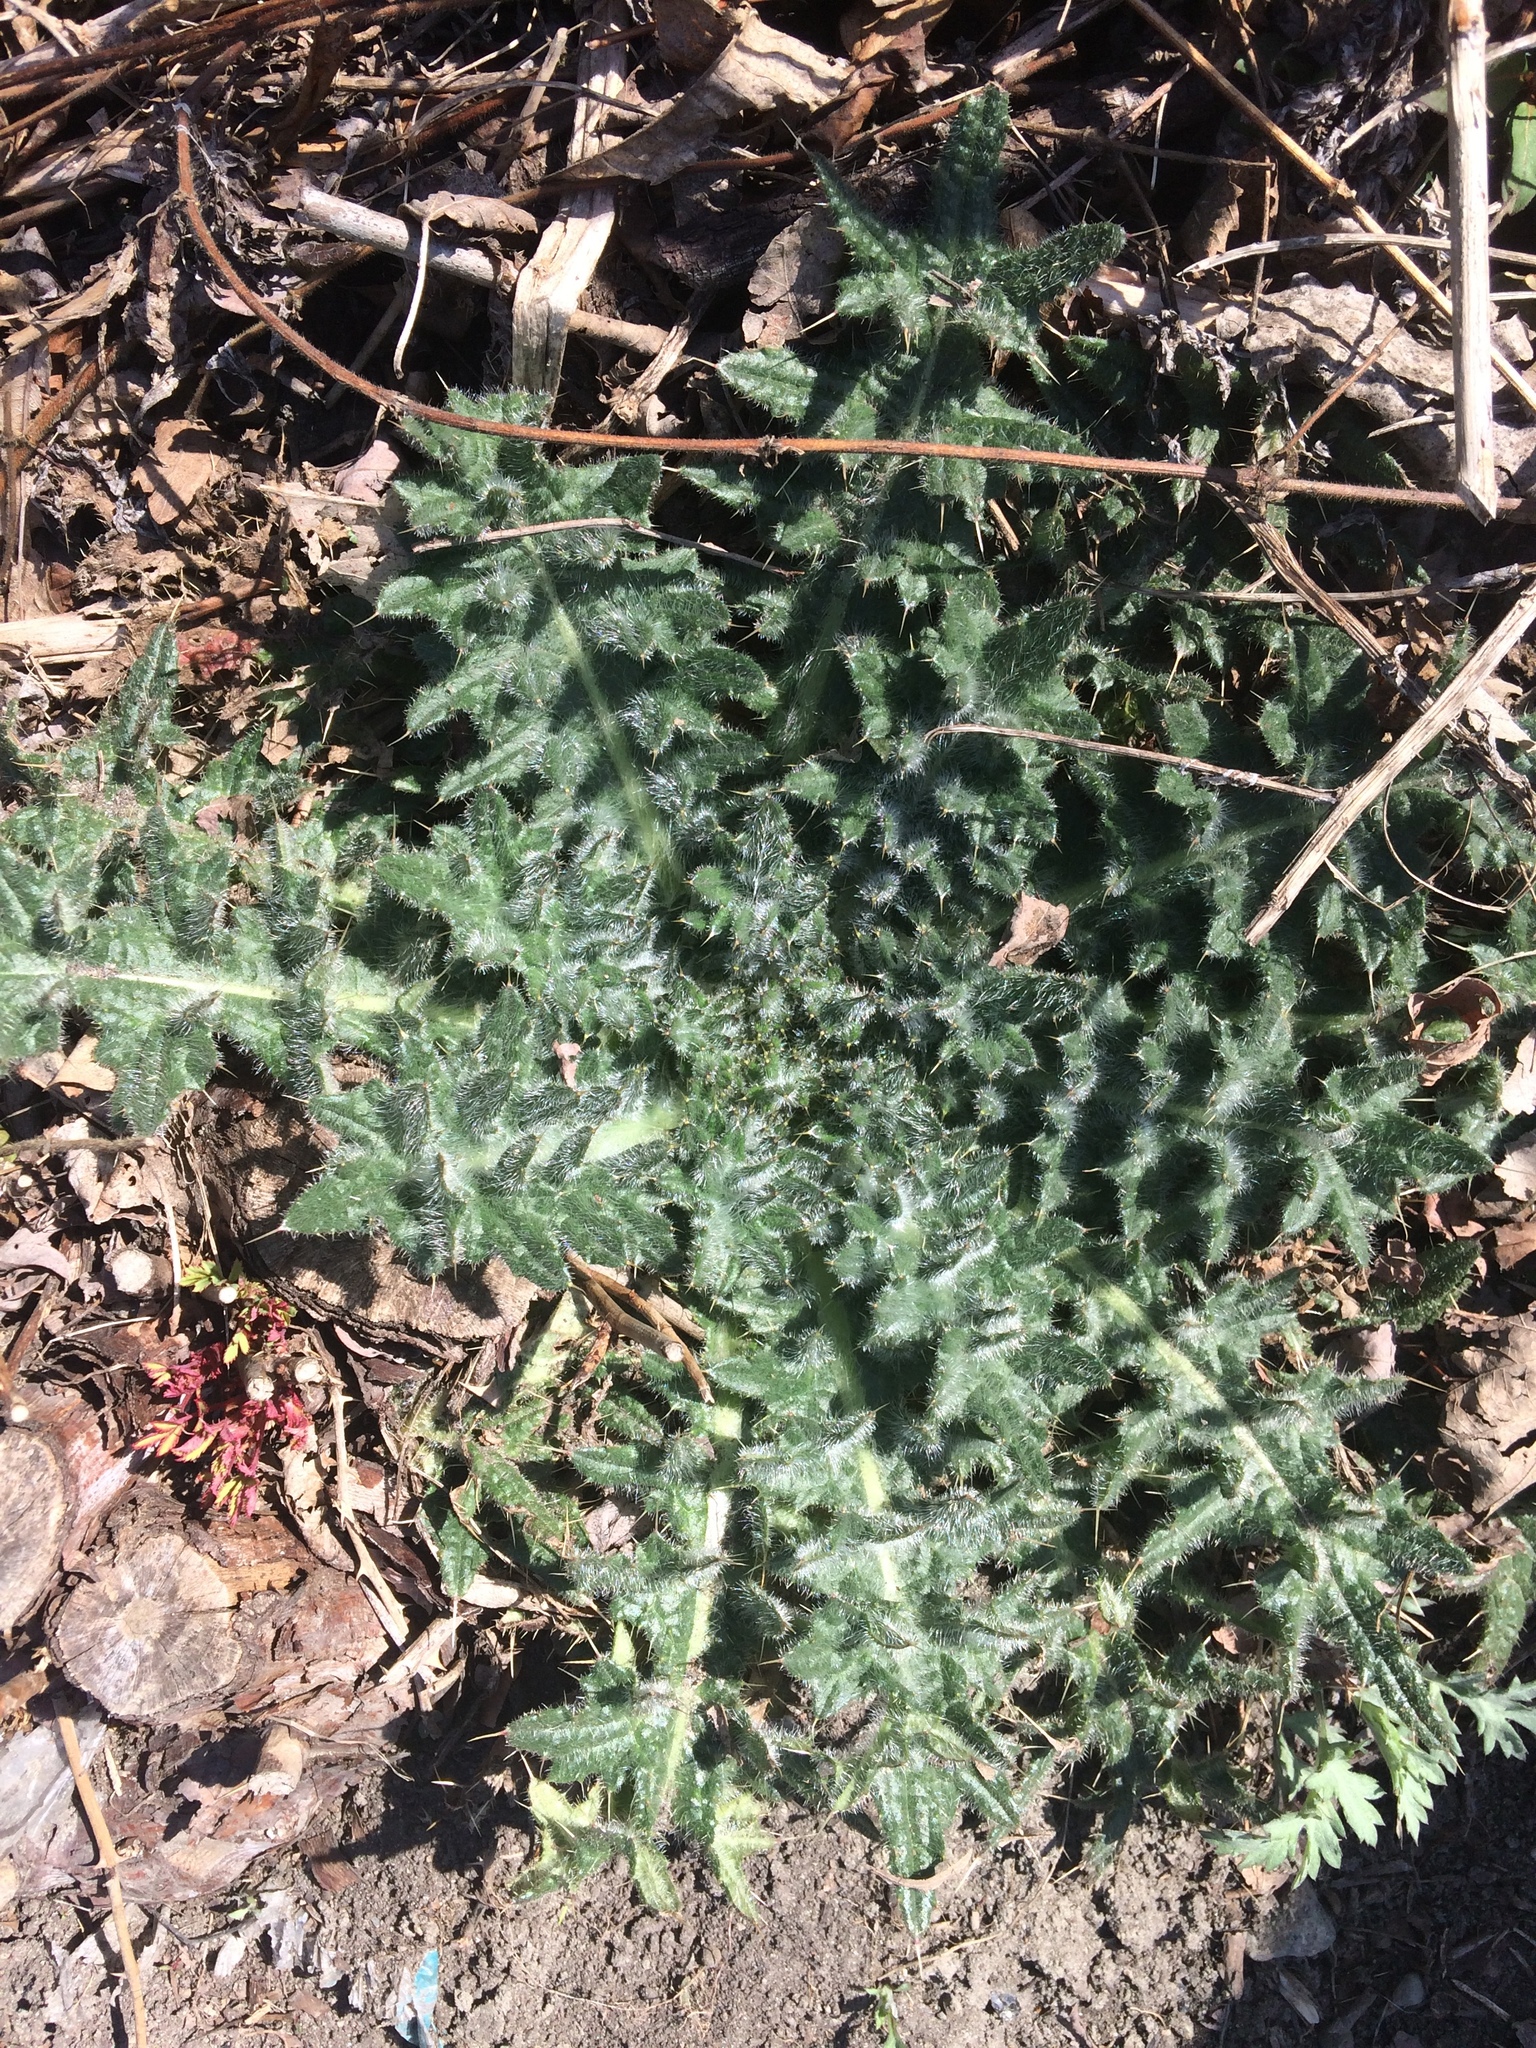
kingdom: Plantae
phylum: Tracheophyta
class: Magnoliopsida
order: Asterales
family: Asteraceae
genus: Cirsium
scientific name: Cirsium vulgare
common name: Bull thistle
